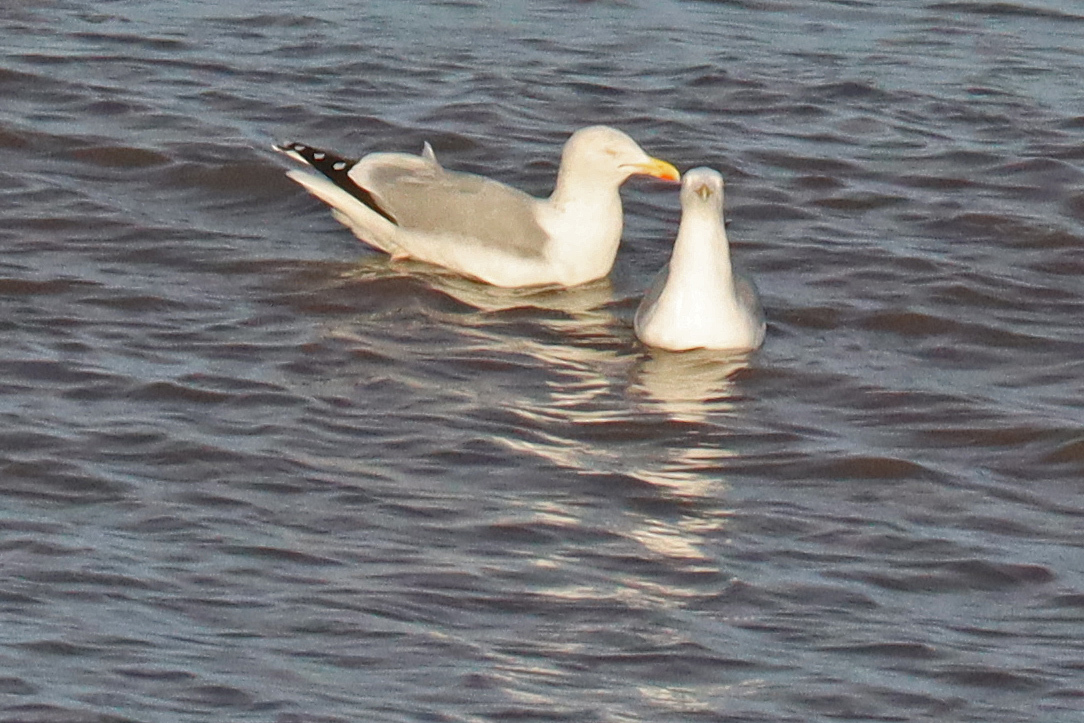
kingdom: Animalia
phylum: Chordata
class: Aves
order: Charadriiformes
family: Laridae
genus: Larus
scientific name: Larus argentatus
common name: Herring gull
